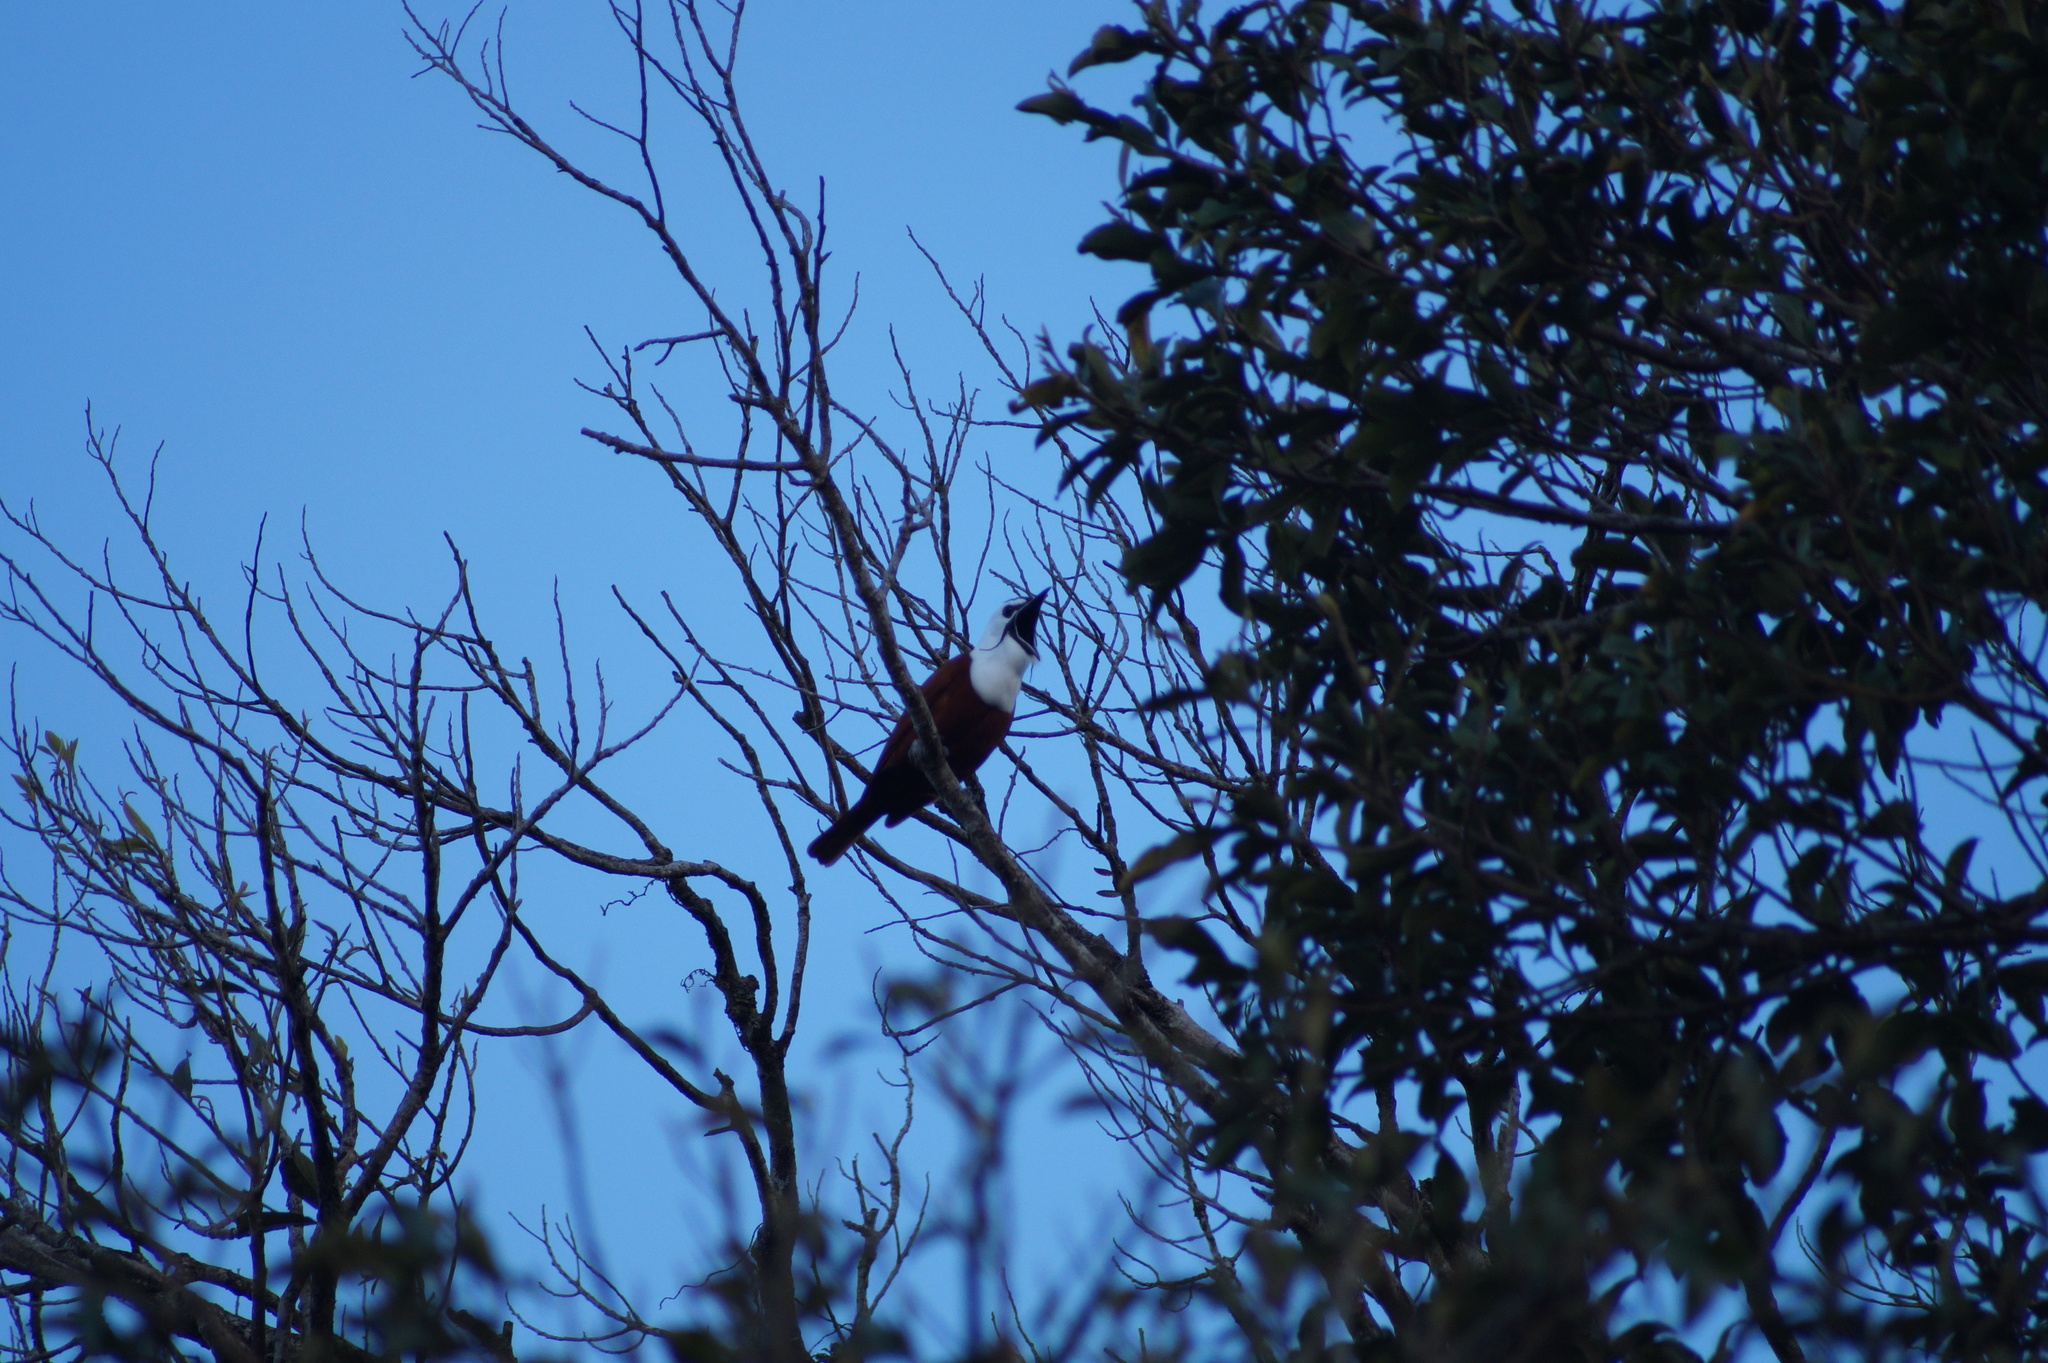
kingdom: Animalia
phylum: Chordata
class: Aves
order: Passeriformes
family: Cotingidae
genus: Procnias
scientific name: Procnias tricarunculatus
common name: Three-wattled bellbird
